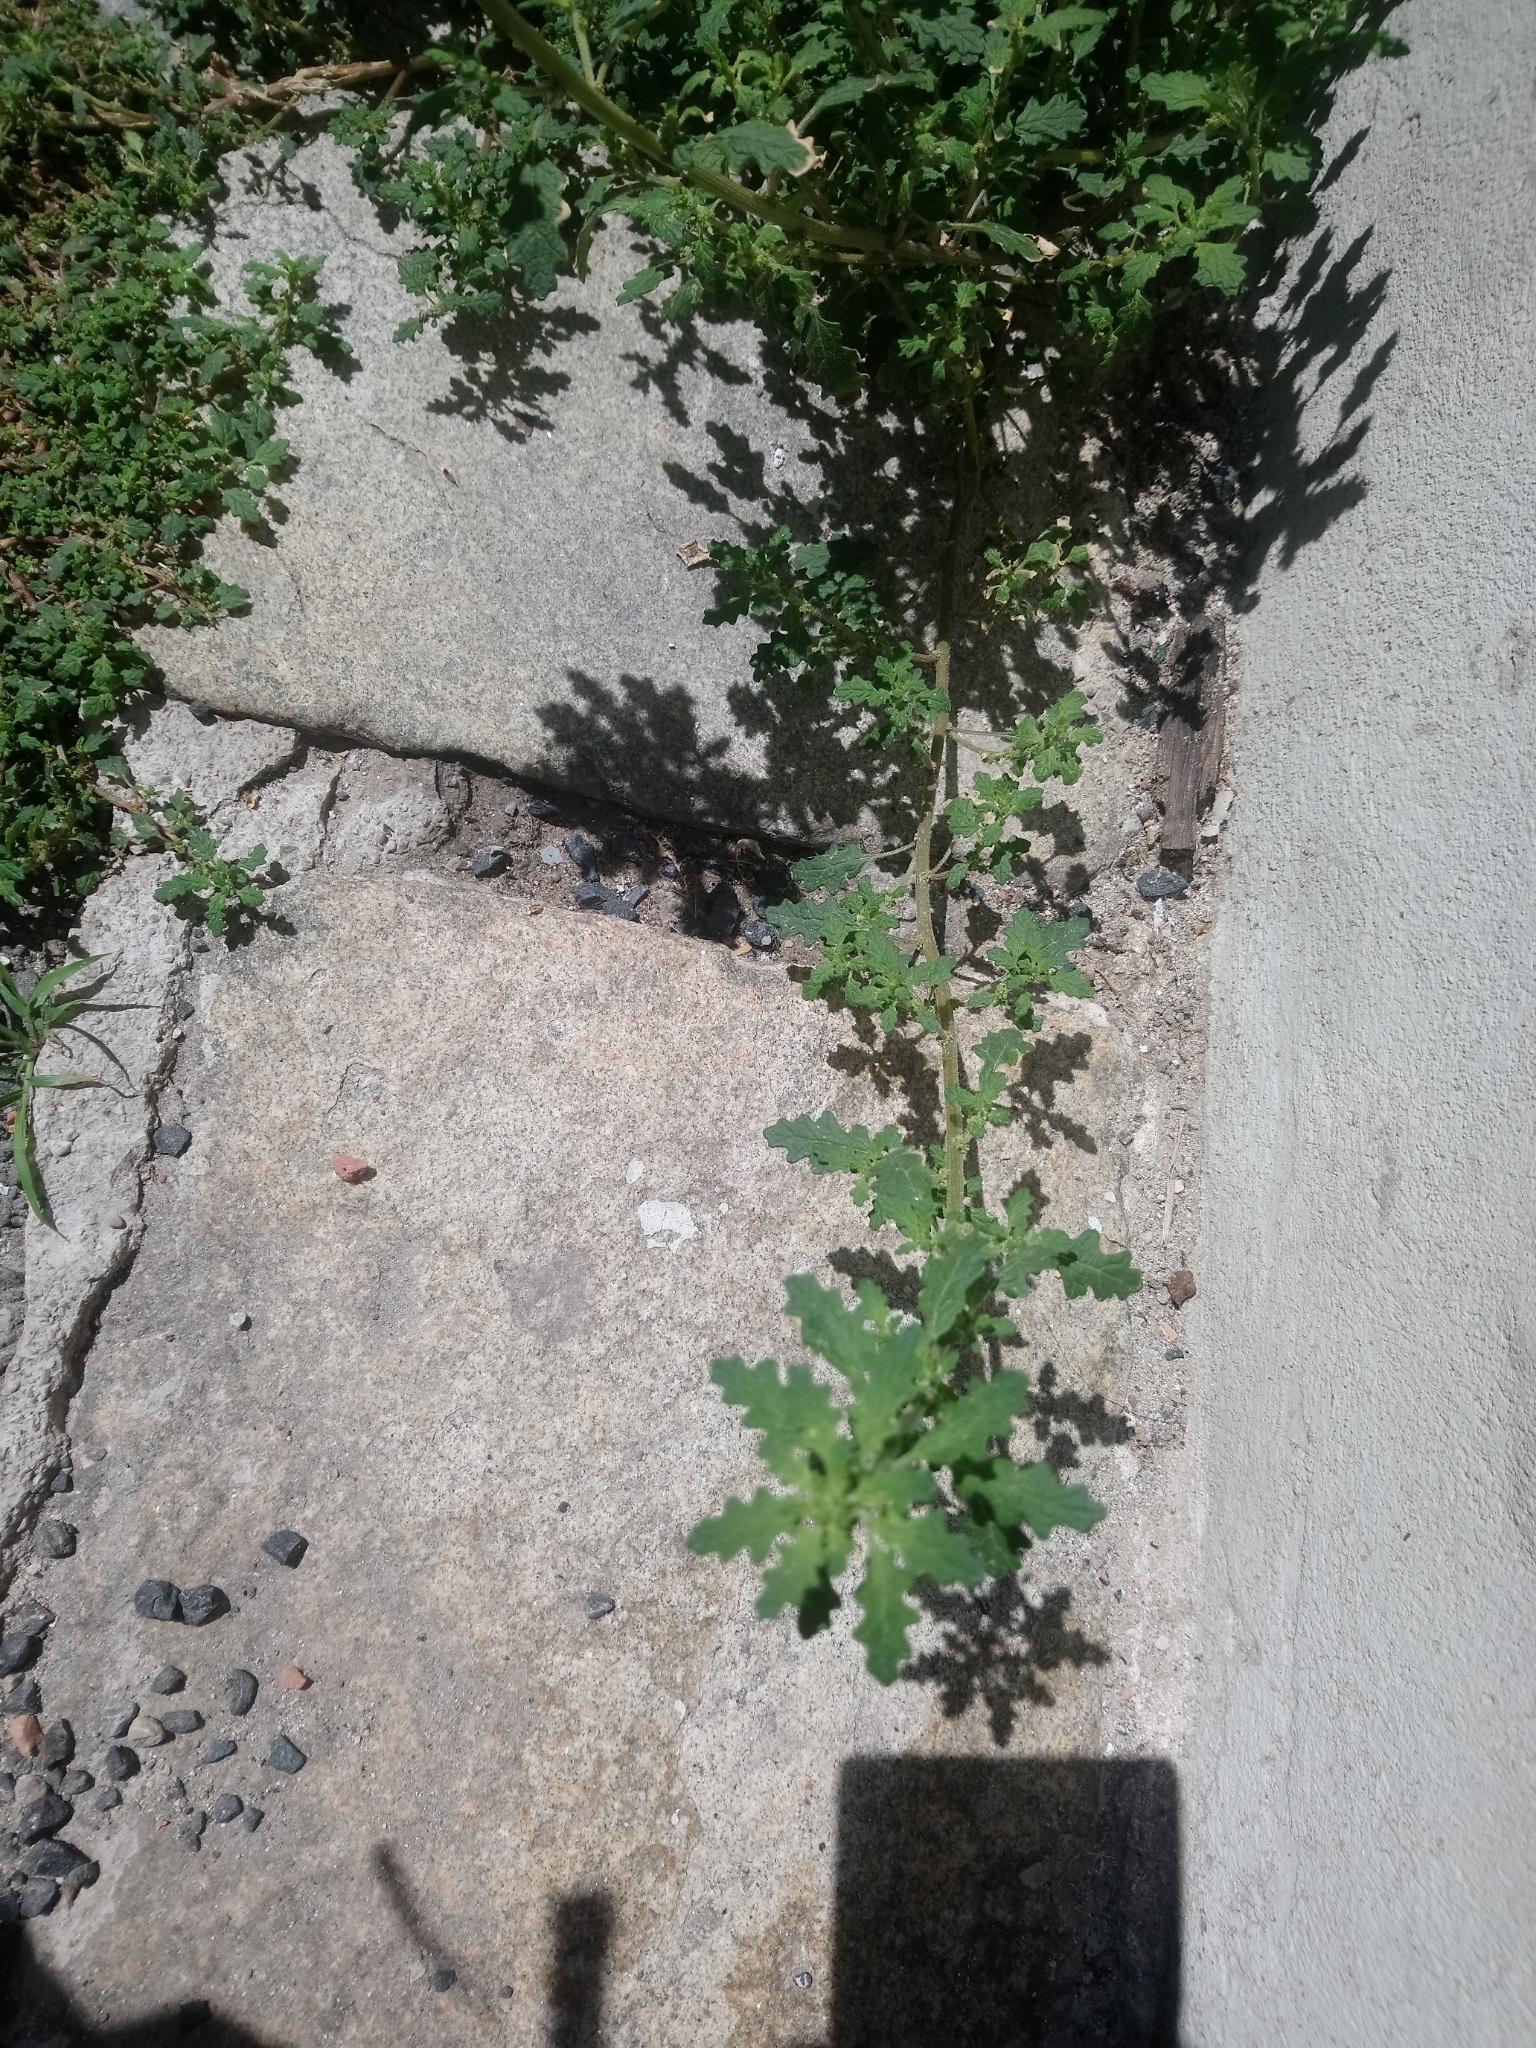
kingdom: Plantae
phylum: Tracheophyta
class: Magnoliopsida
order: Caryophyllales
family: Amaranthaceae
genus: Dysphania
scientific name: Dysphania pumilio
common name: Clammy goosefoot
